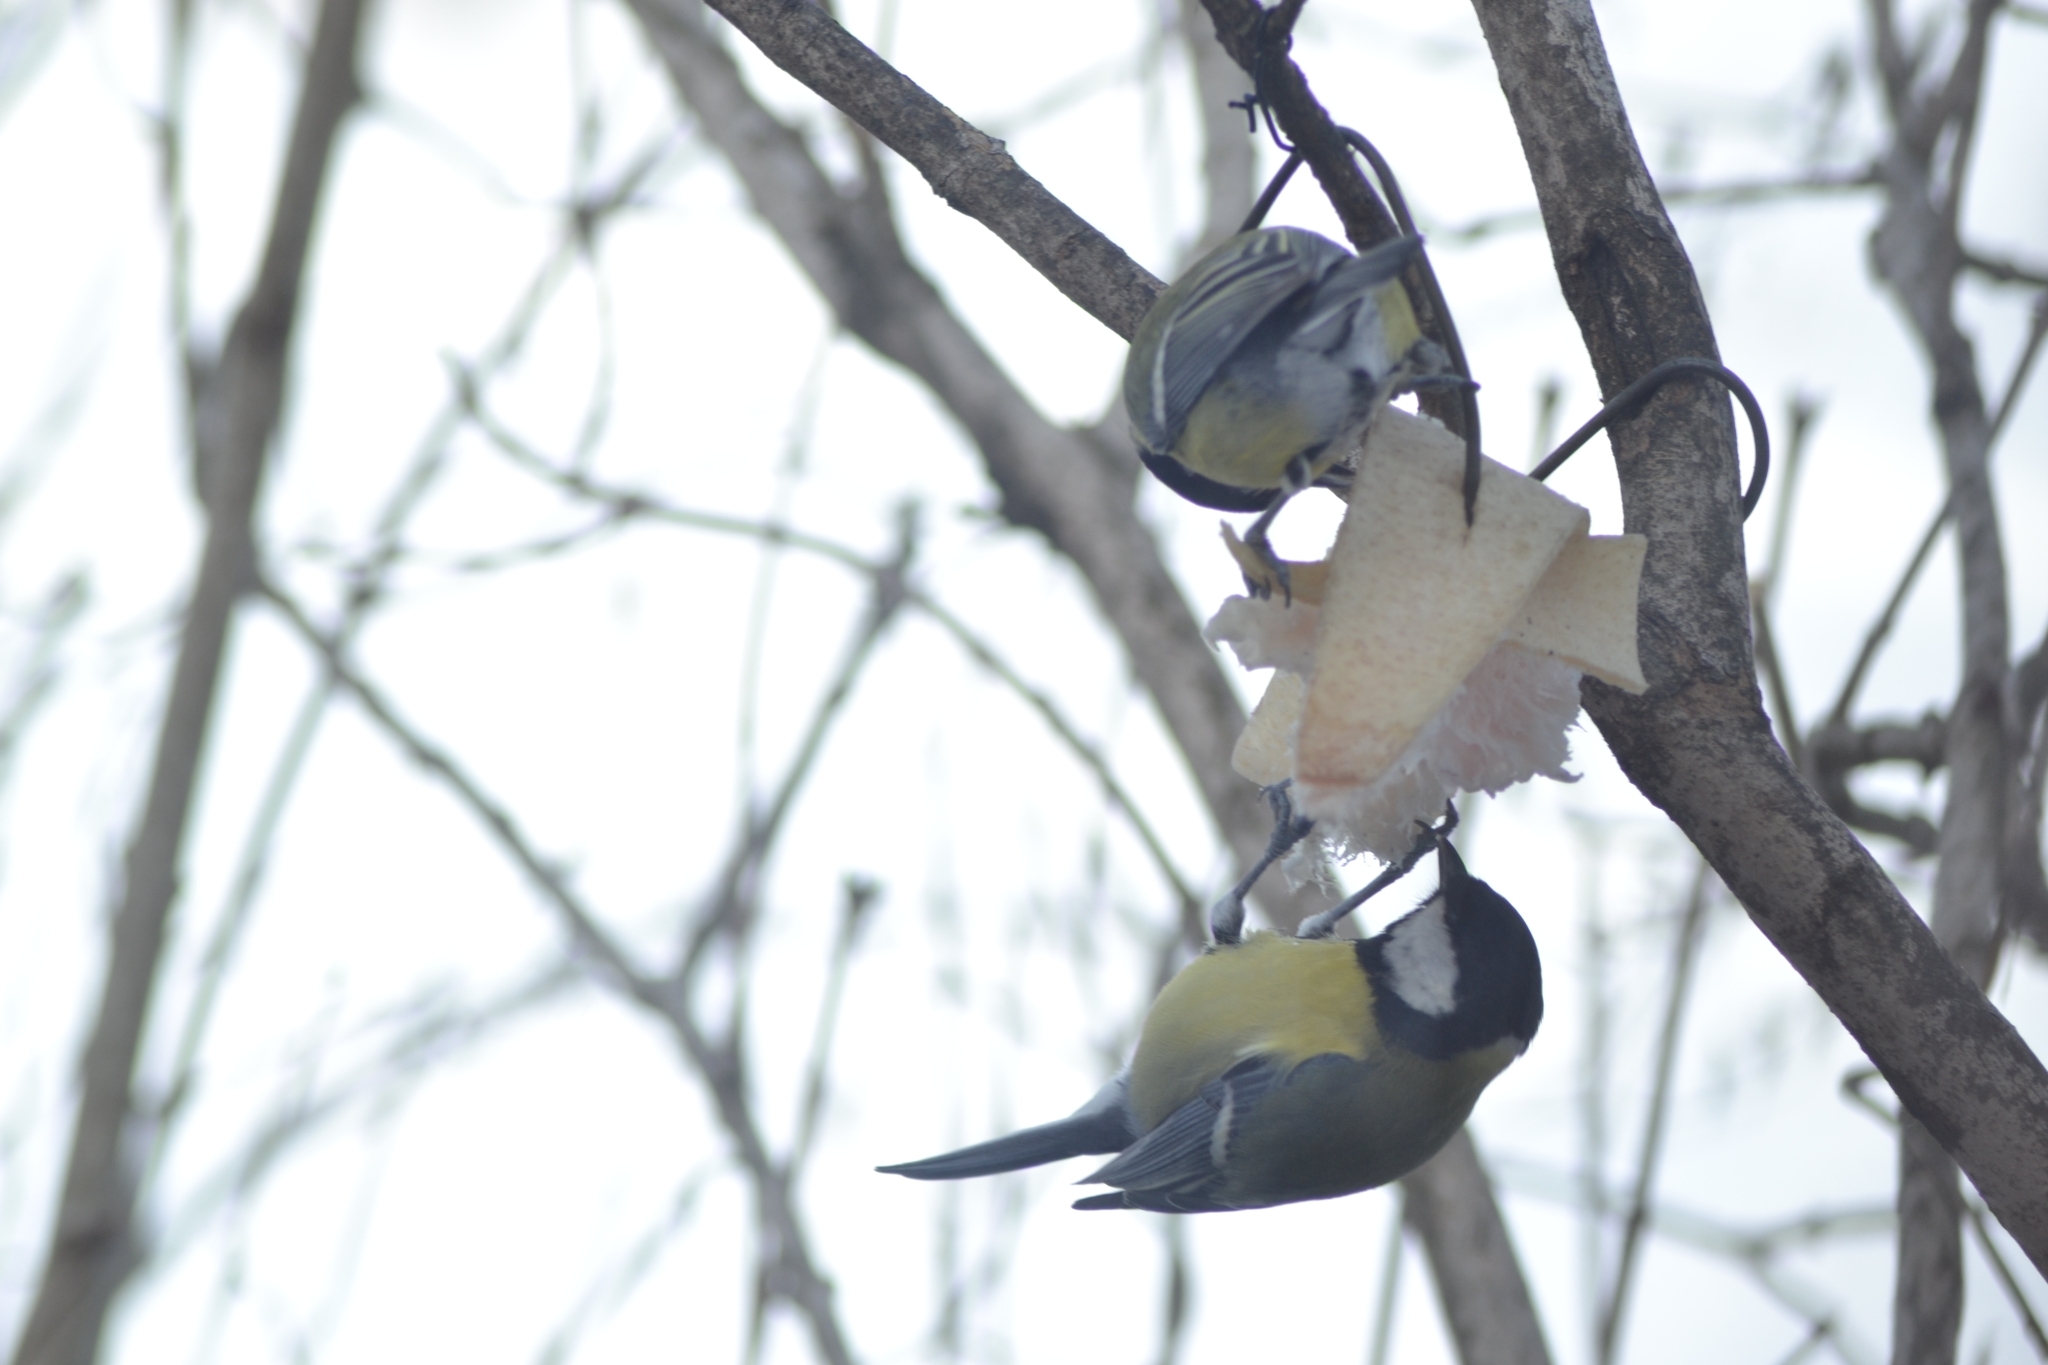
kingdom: Animalia
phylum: Chordata
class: Aves
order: Passeriformes
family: Paridae
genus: Parus
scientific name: Parus major
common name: Great tit
